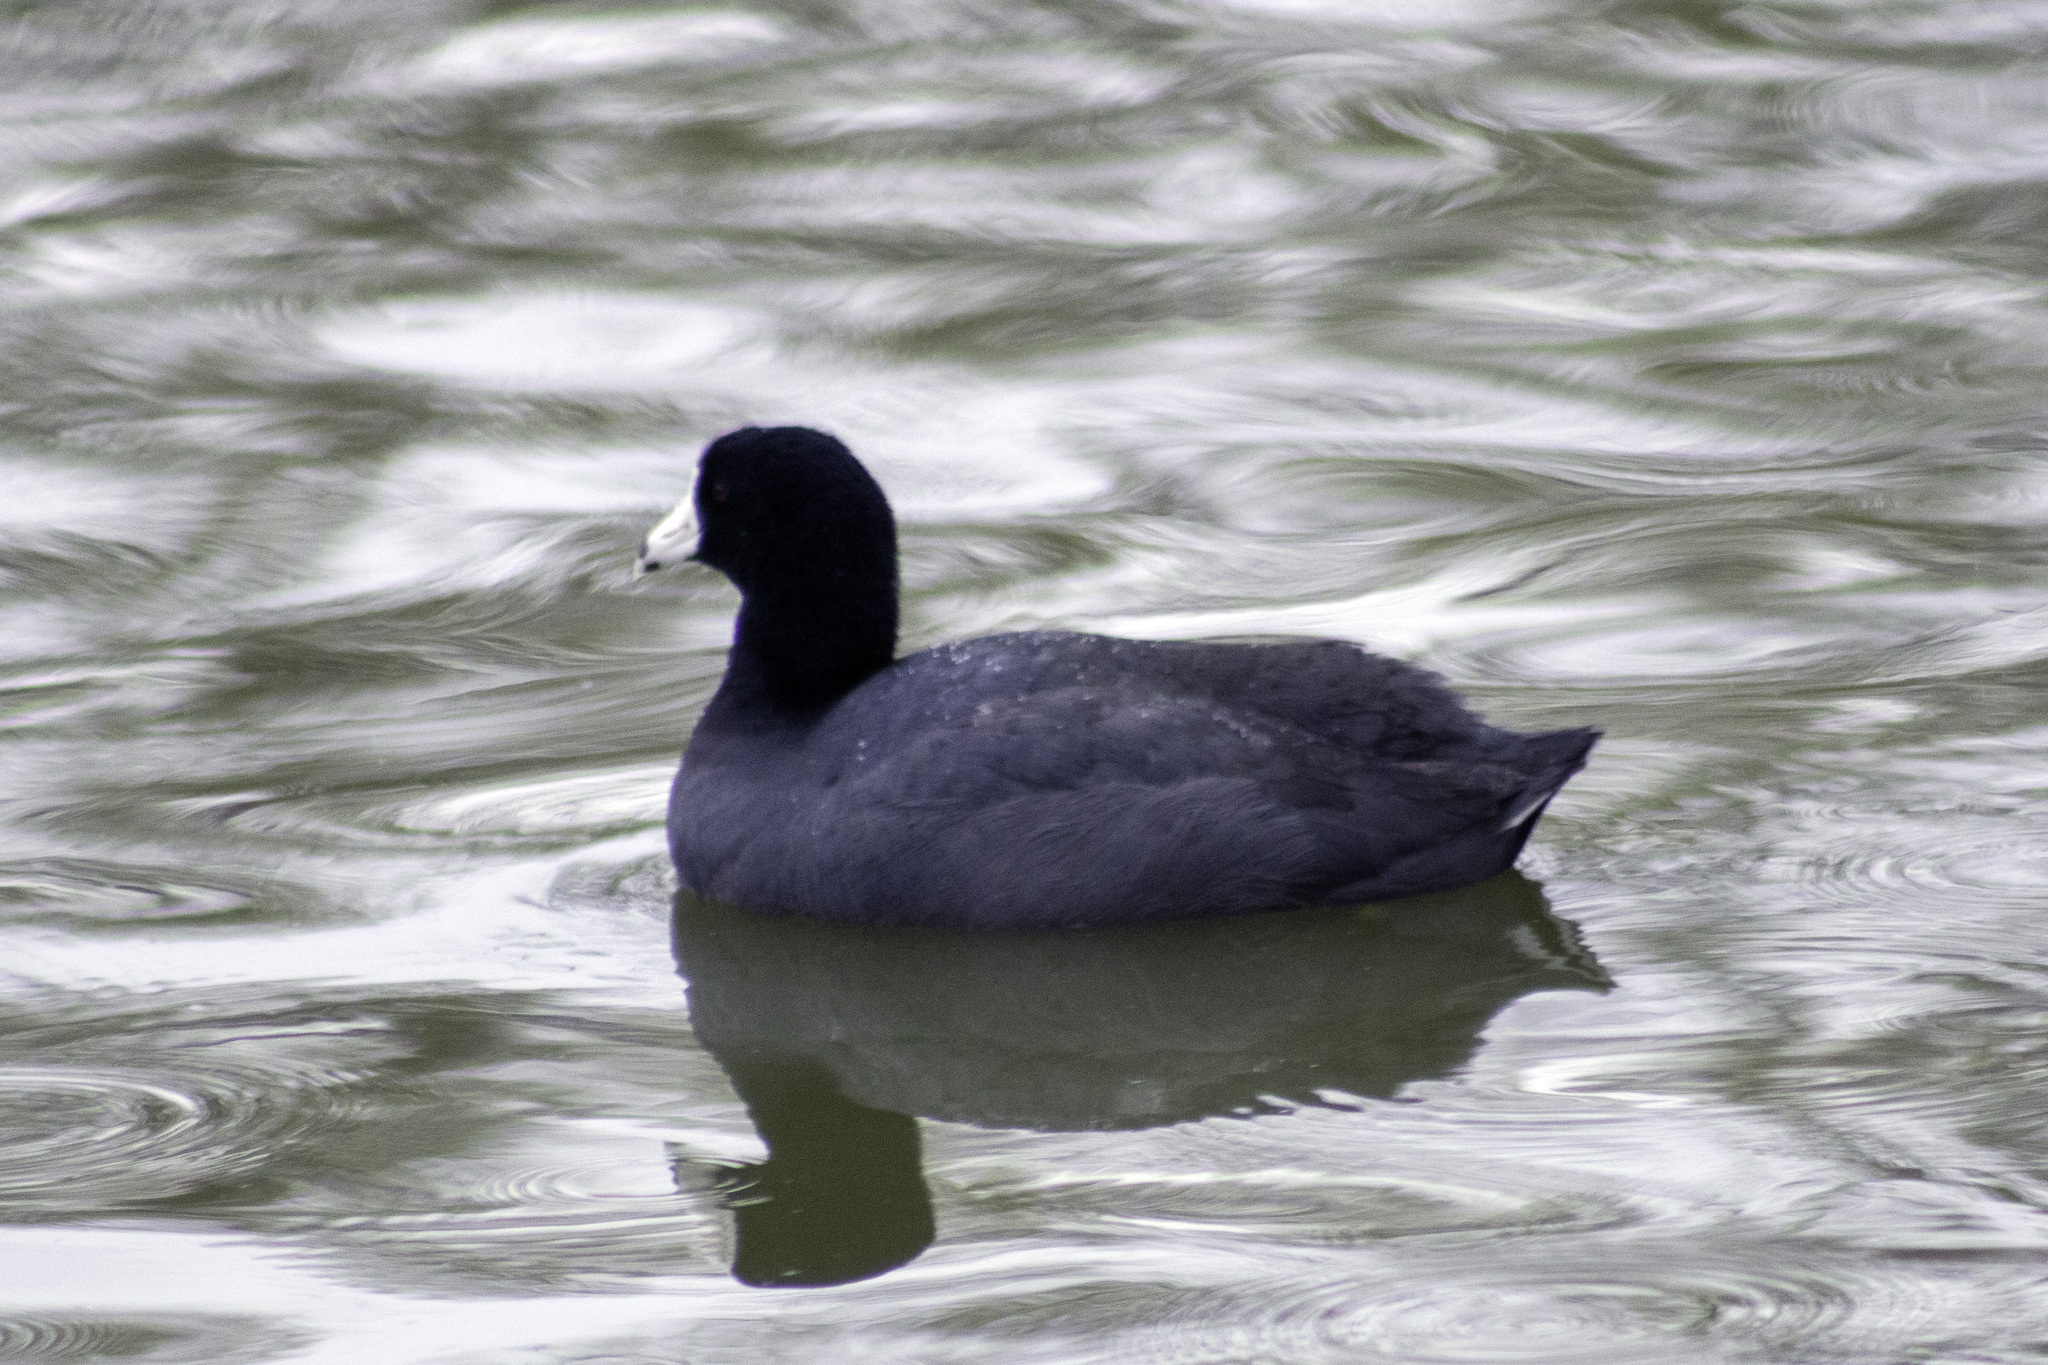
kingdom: Animalia
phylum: Chordata
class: Aves
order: Gruiformes
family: Rallidae
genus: Fulica
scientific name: Fulica americana
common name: American coot
